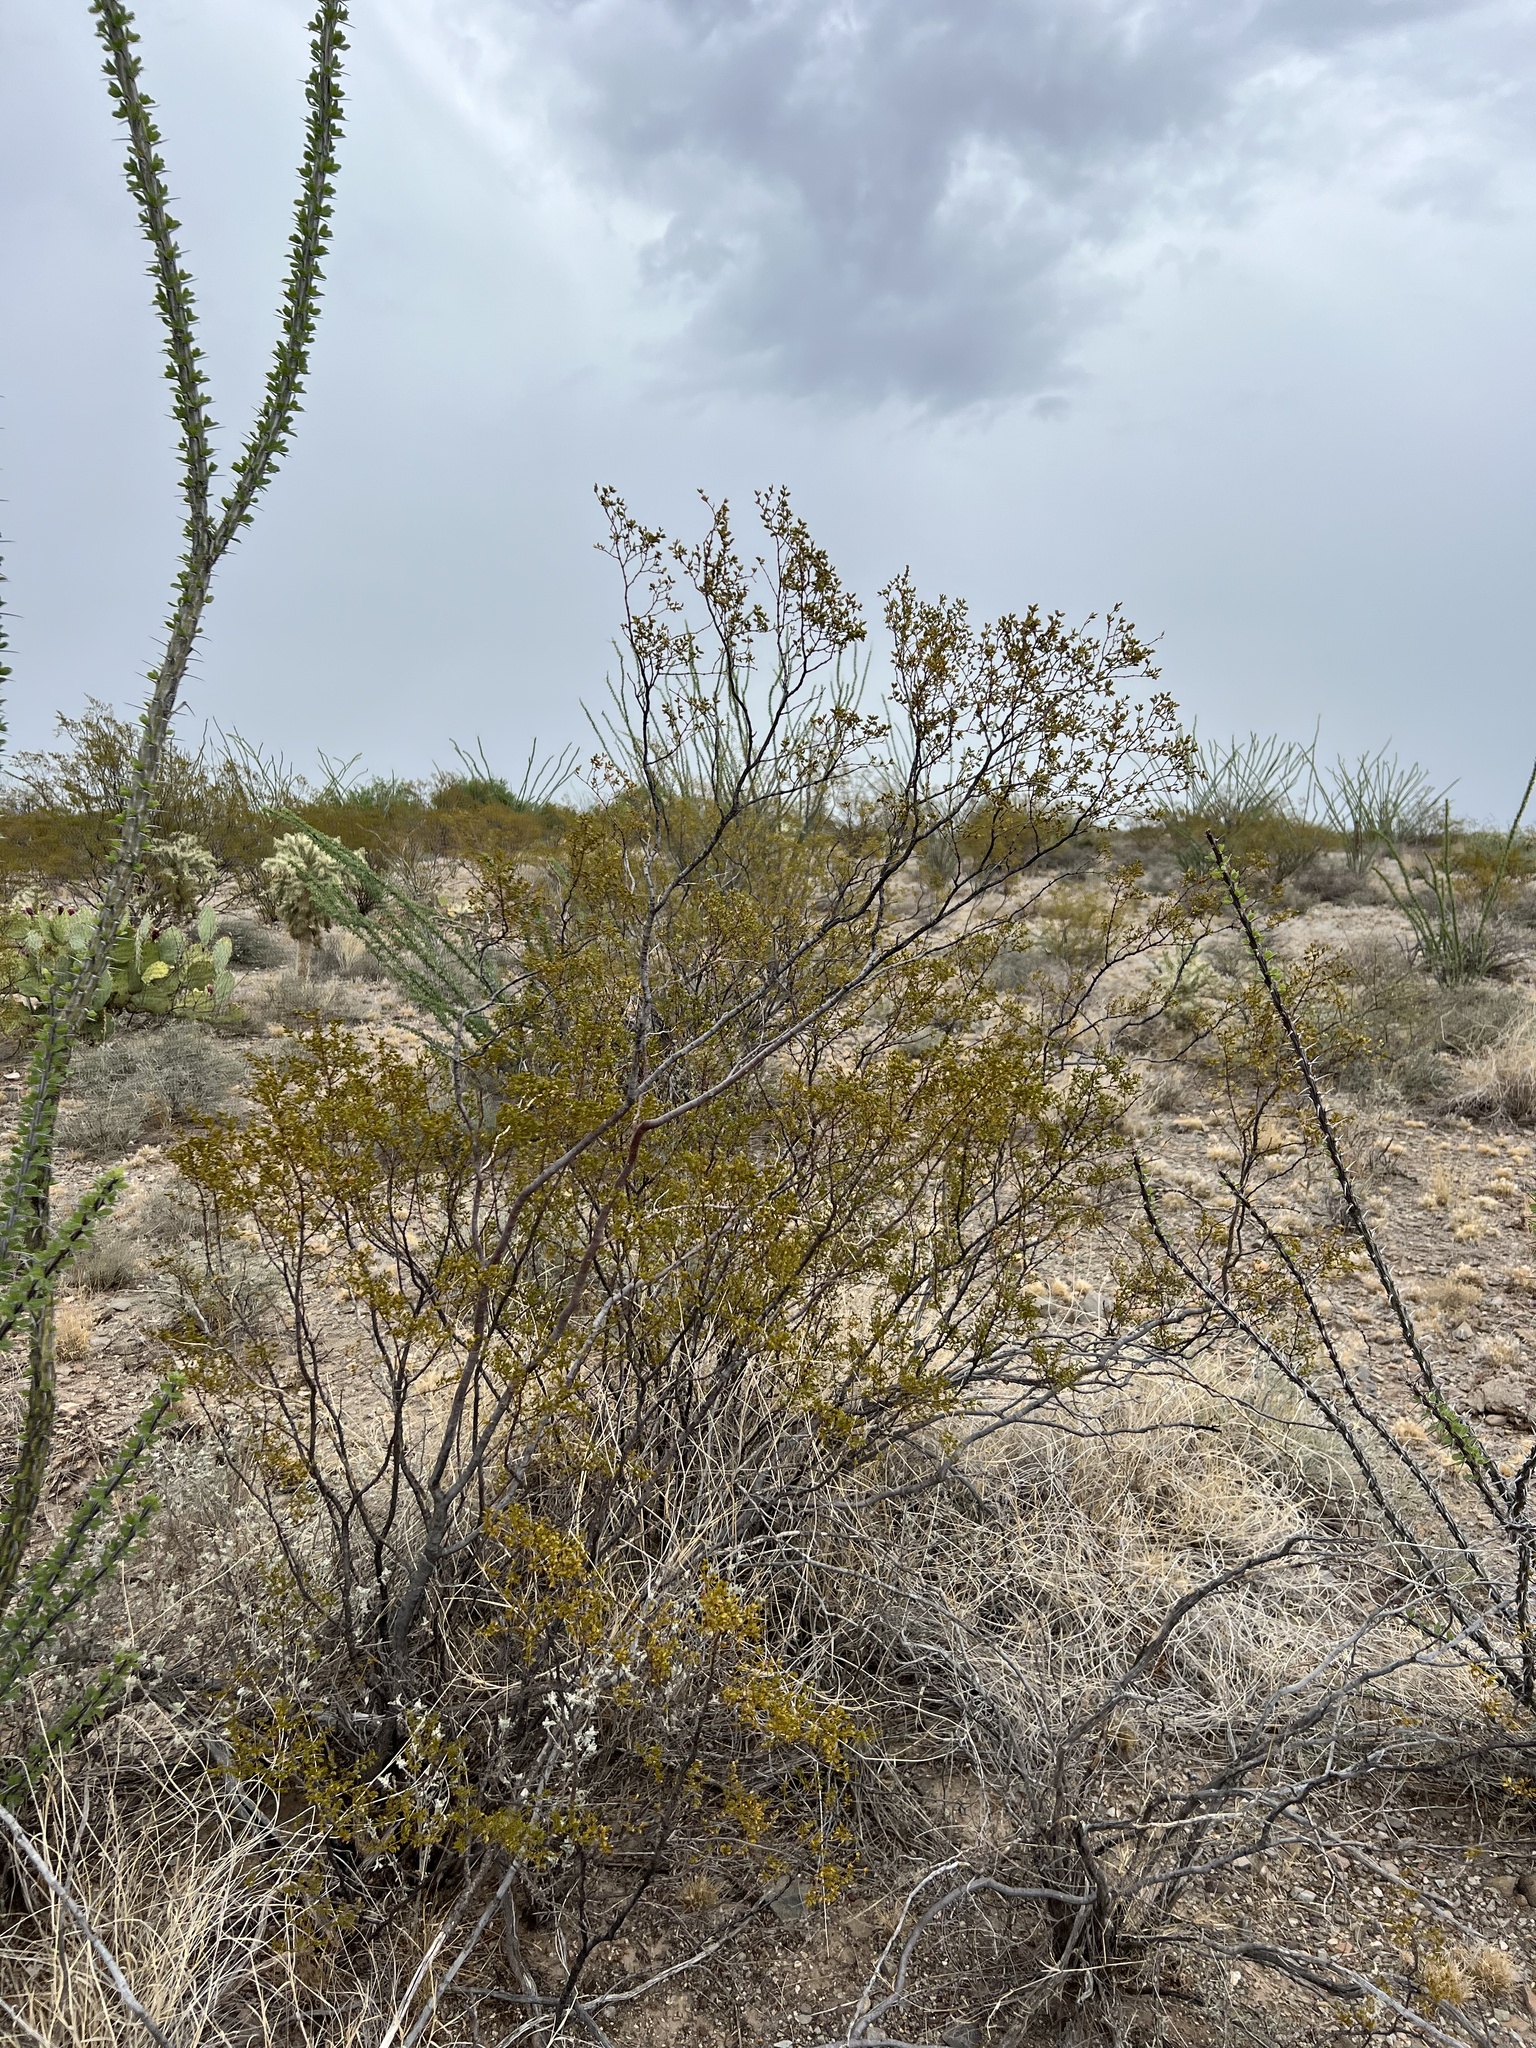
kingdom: Plantae
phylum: Tracheophyta
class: Magnoliopsida
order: Zygophyllales
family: Zygophyllaceae
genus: Larrea
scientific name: Larrea tridentata
